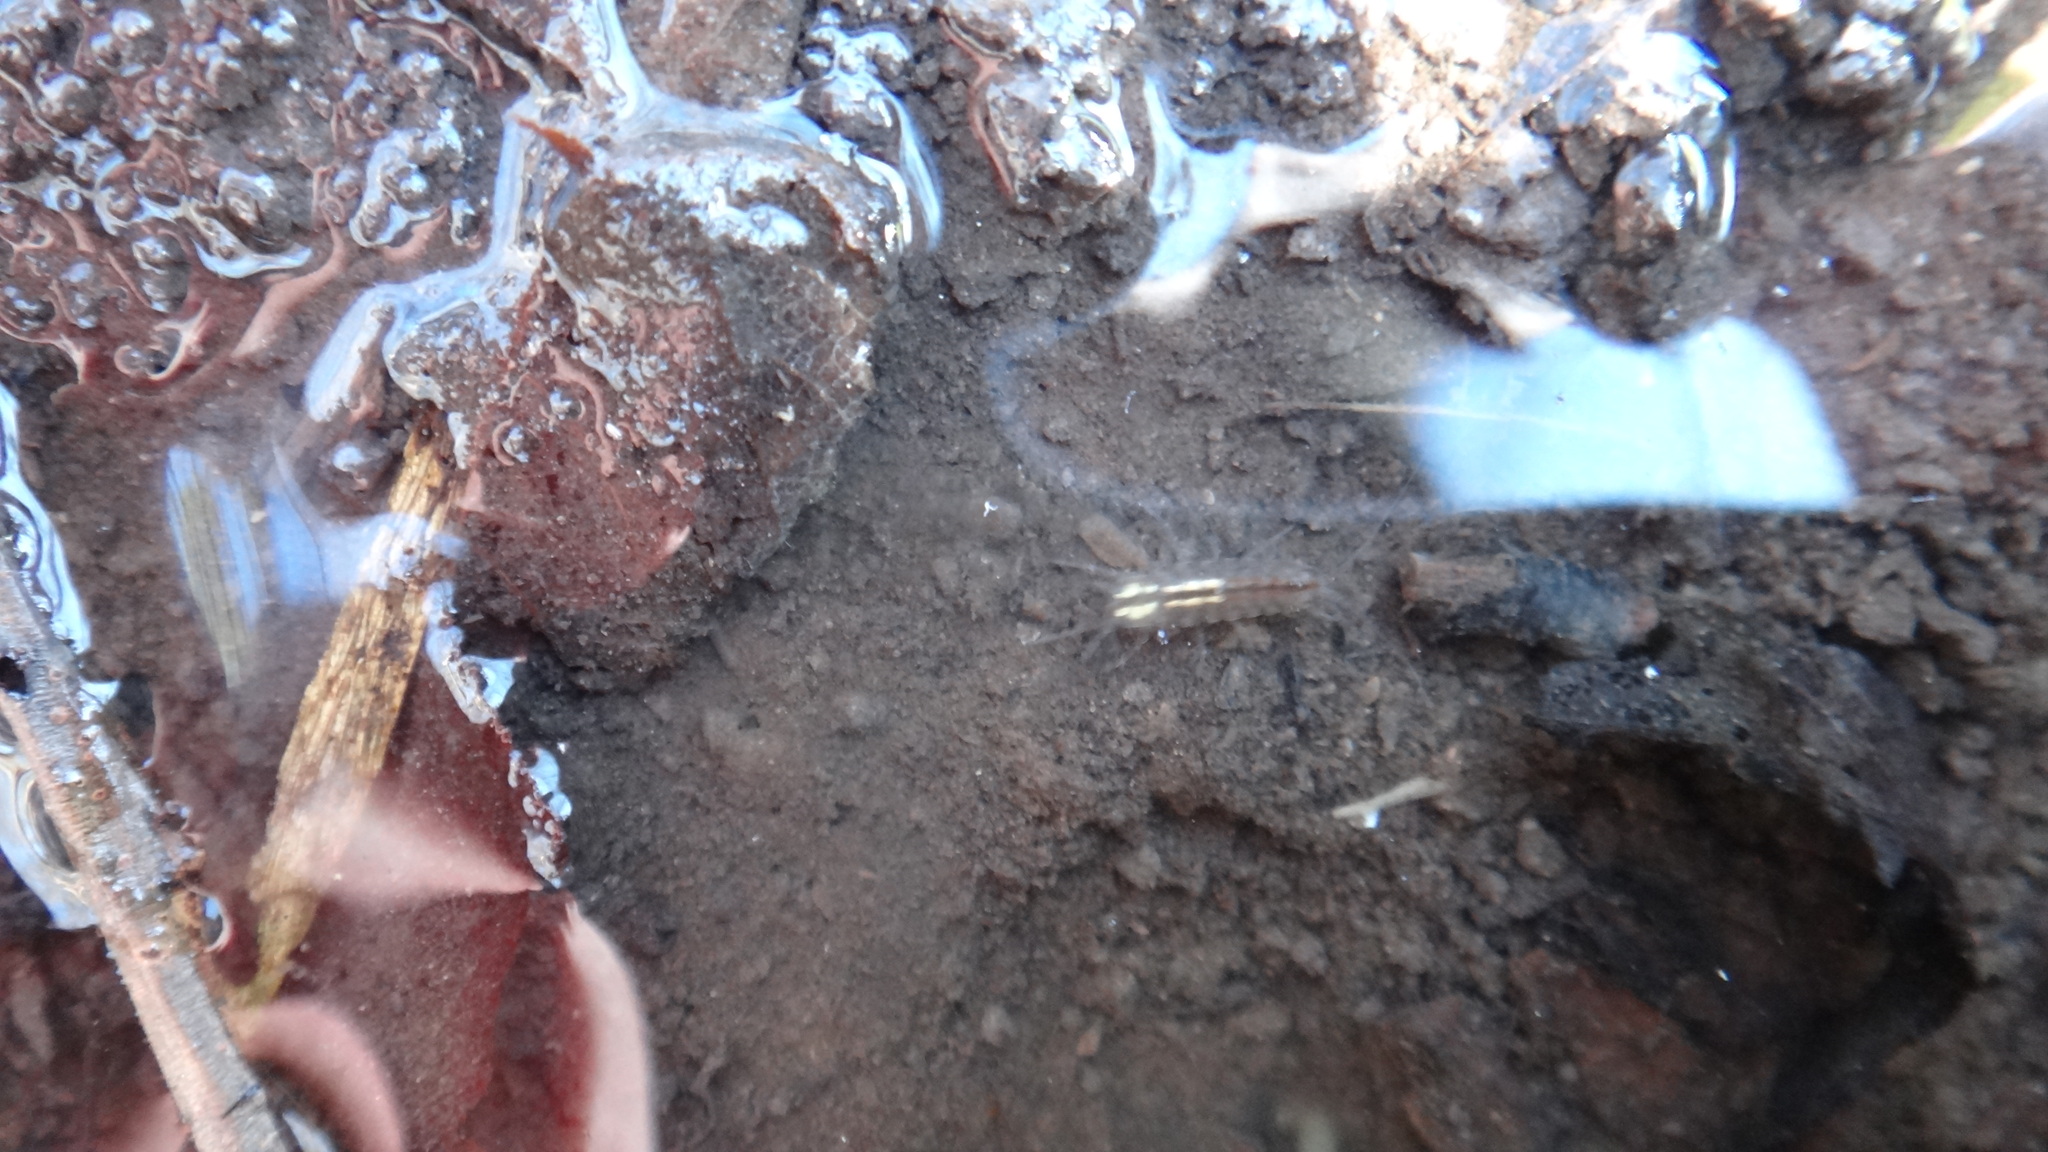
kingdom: Animalia
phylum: Arthropoda
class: Malacostraca
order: Isopoda
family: Asellidae
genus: Asellus
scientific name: Asellus aquaticus
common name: Water hog lice/slaters
